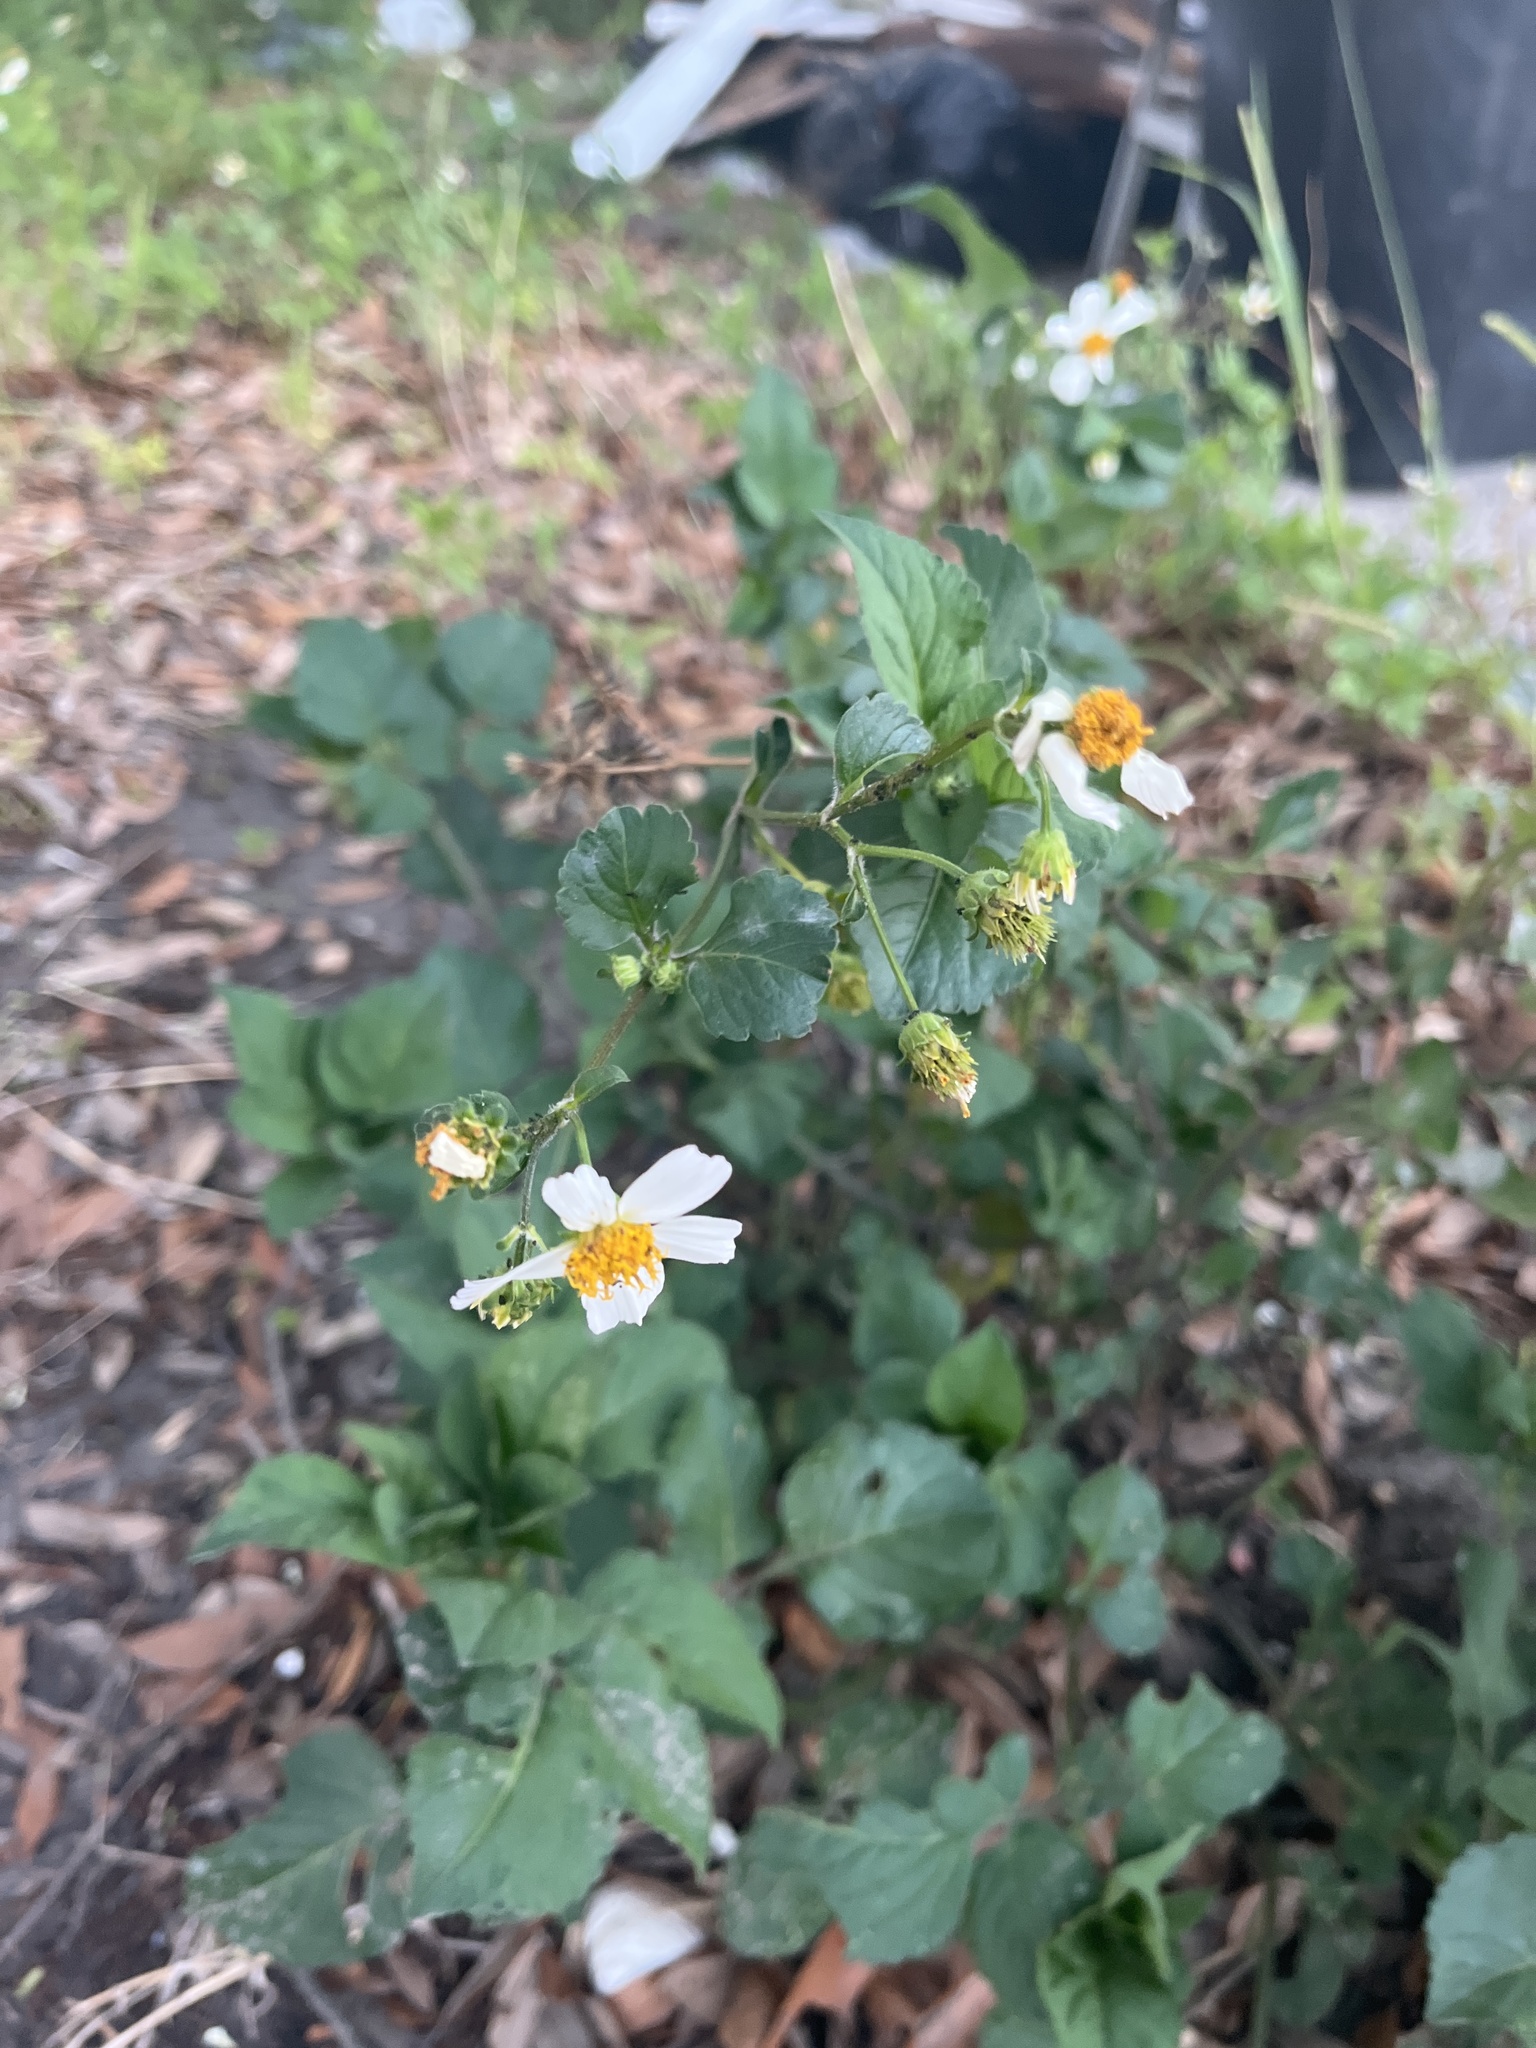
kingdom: Plantae
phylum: Tracheophyta
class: Magnoliopsida
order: Asterales
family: Asteraceae
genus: Bidens
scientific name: Bidens alba
